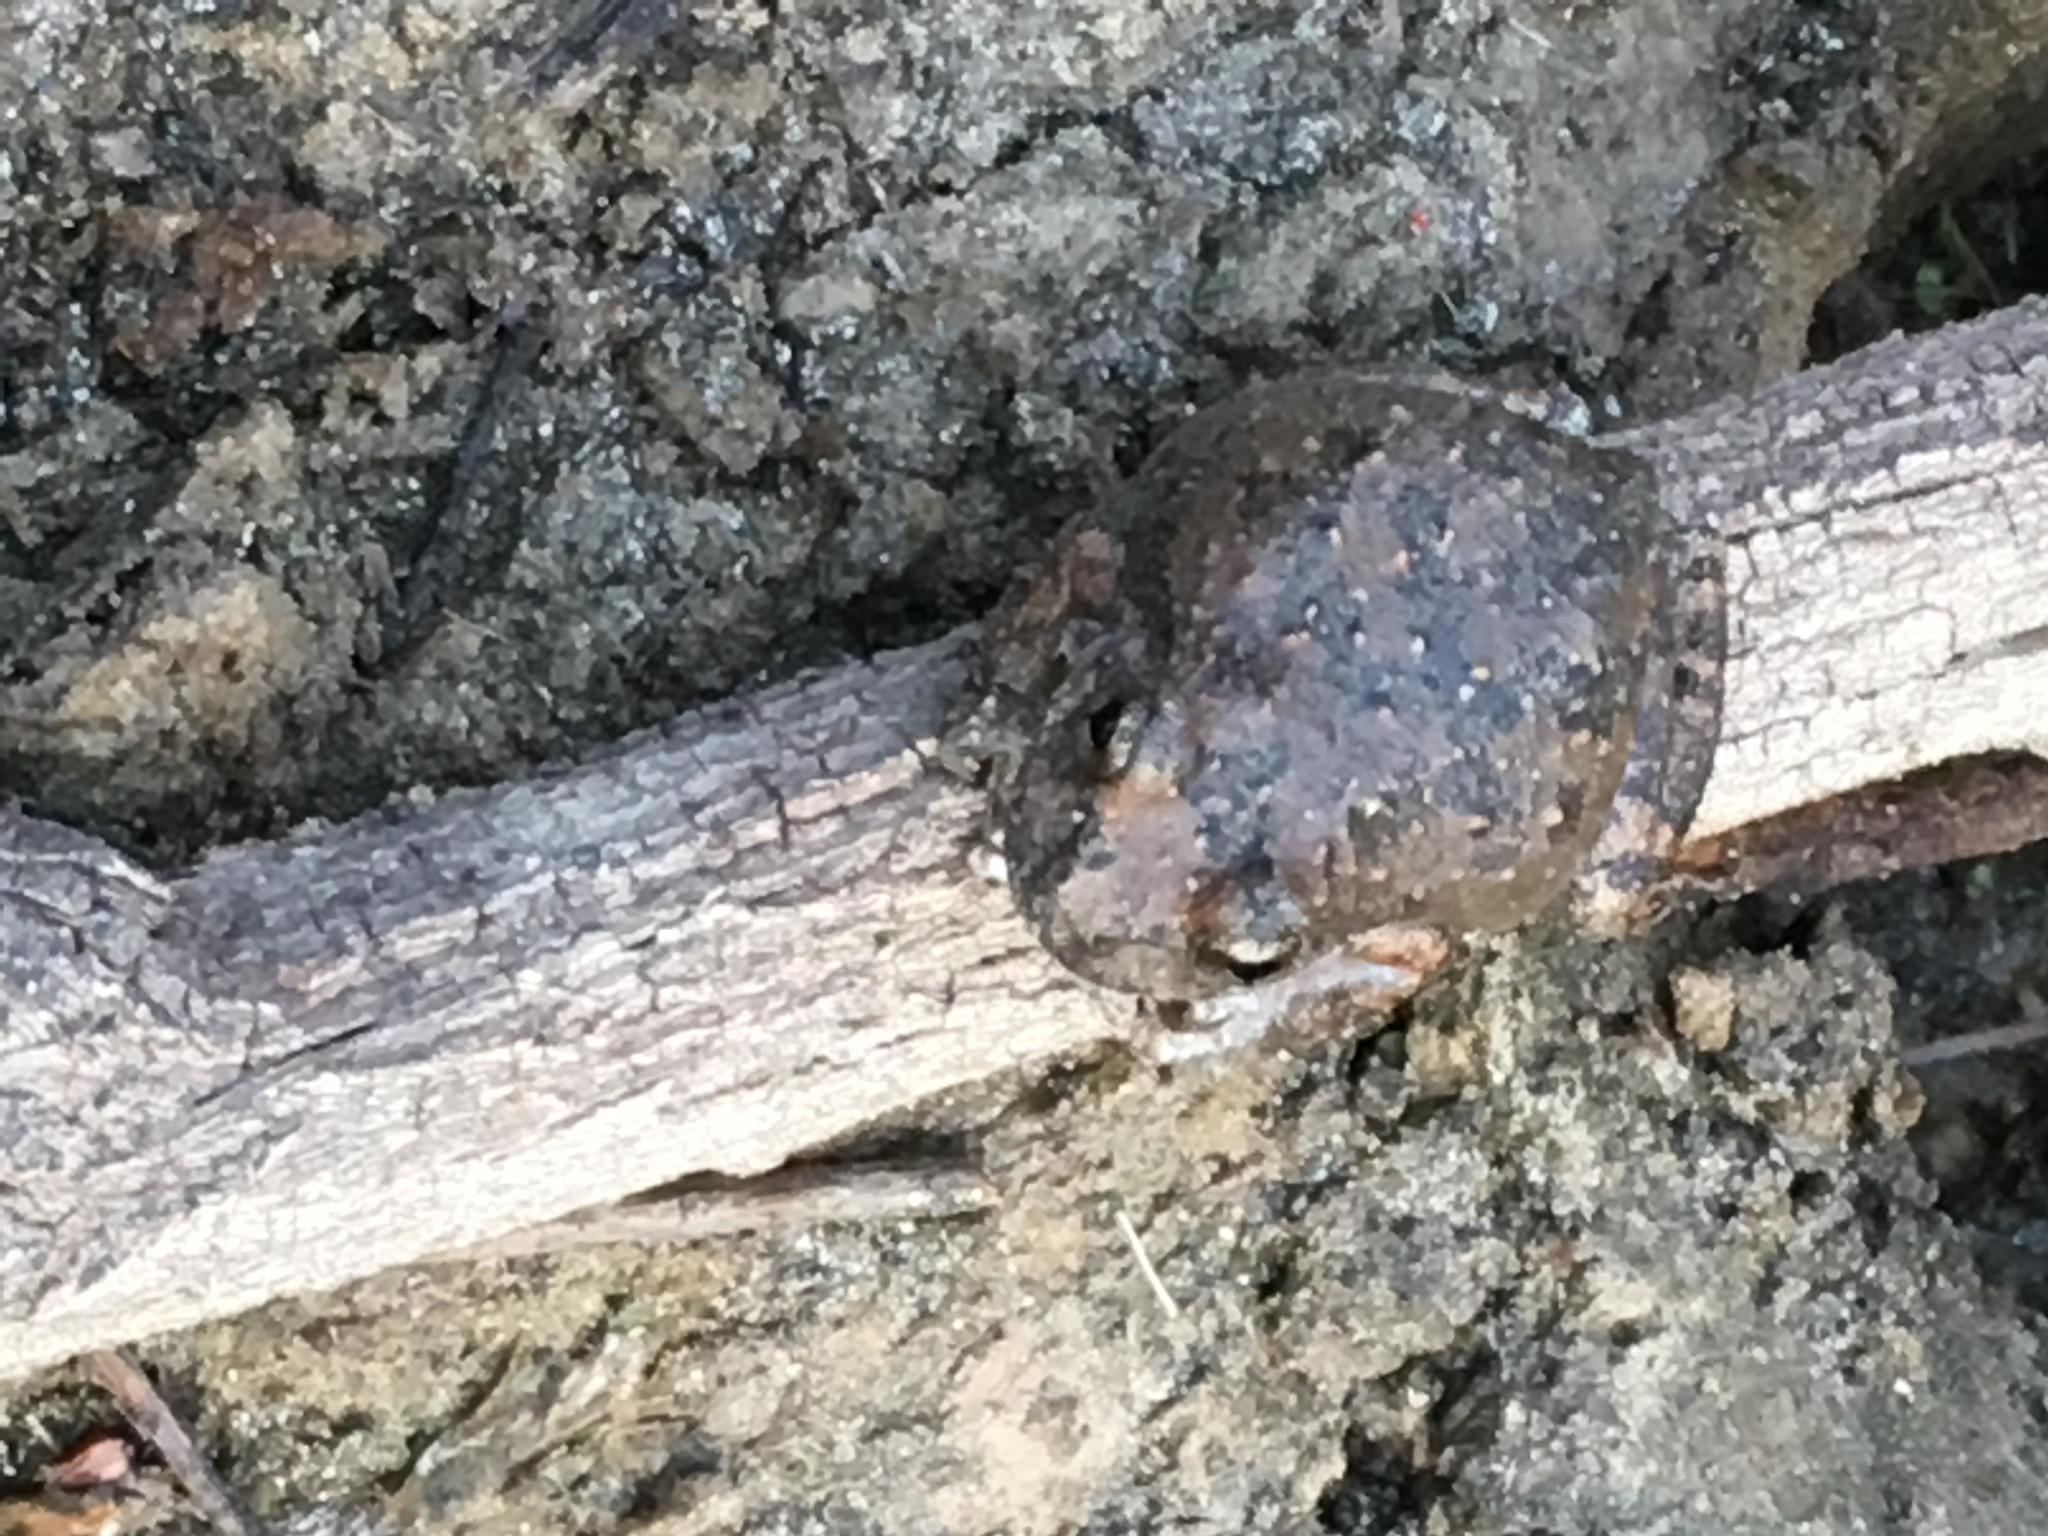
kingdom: Animalia
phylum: Chordata
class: Amphibia
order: Anura
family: Hylidae
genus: Pseudacris
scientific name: Pseudacris cadaverina
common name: California chorus frog
